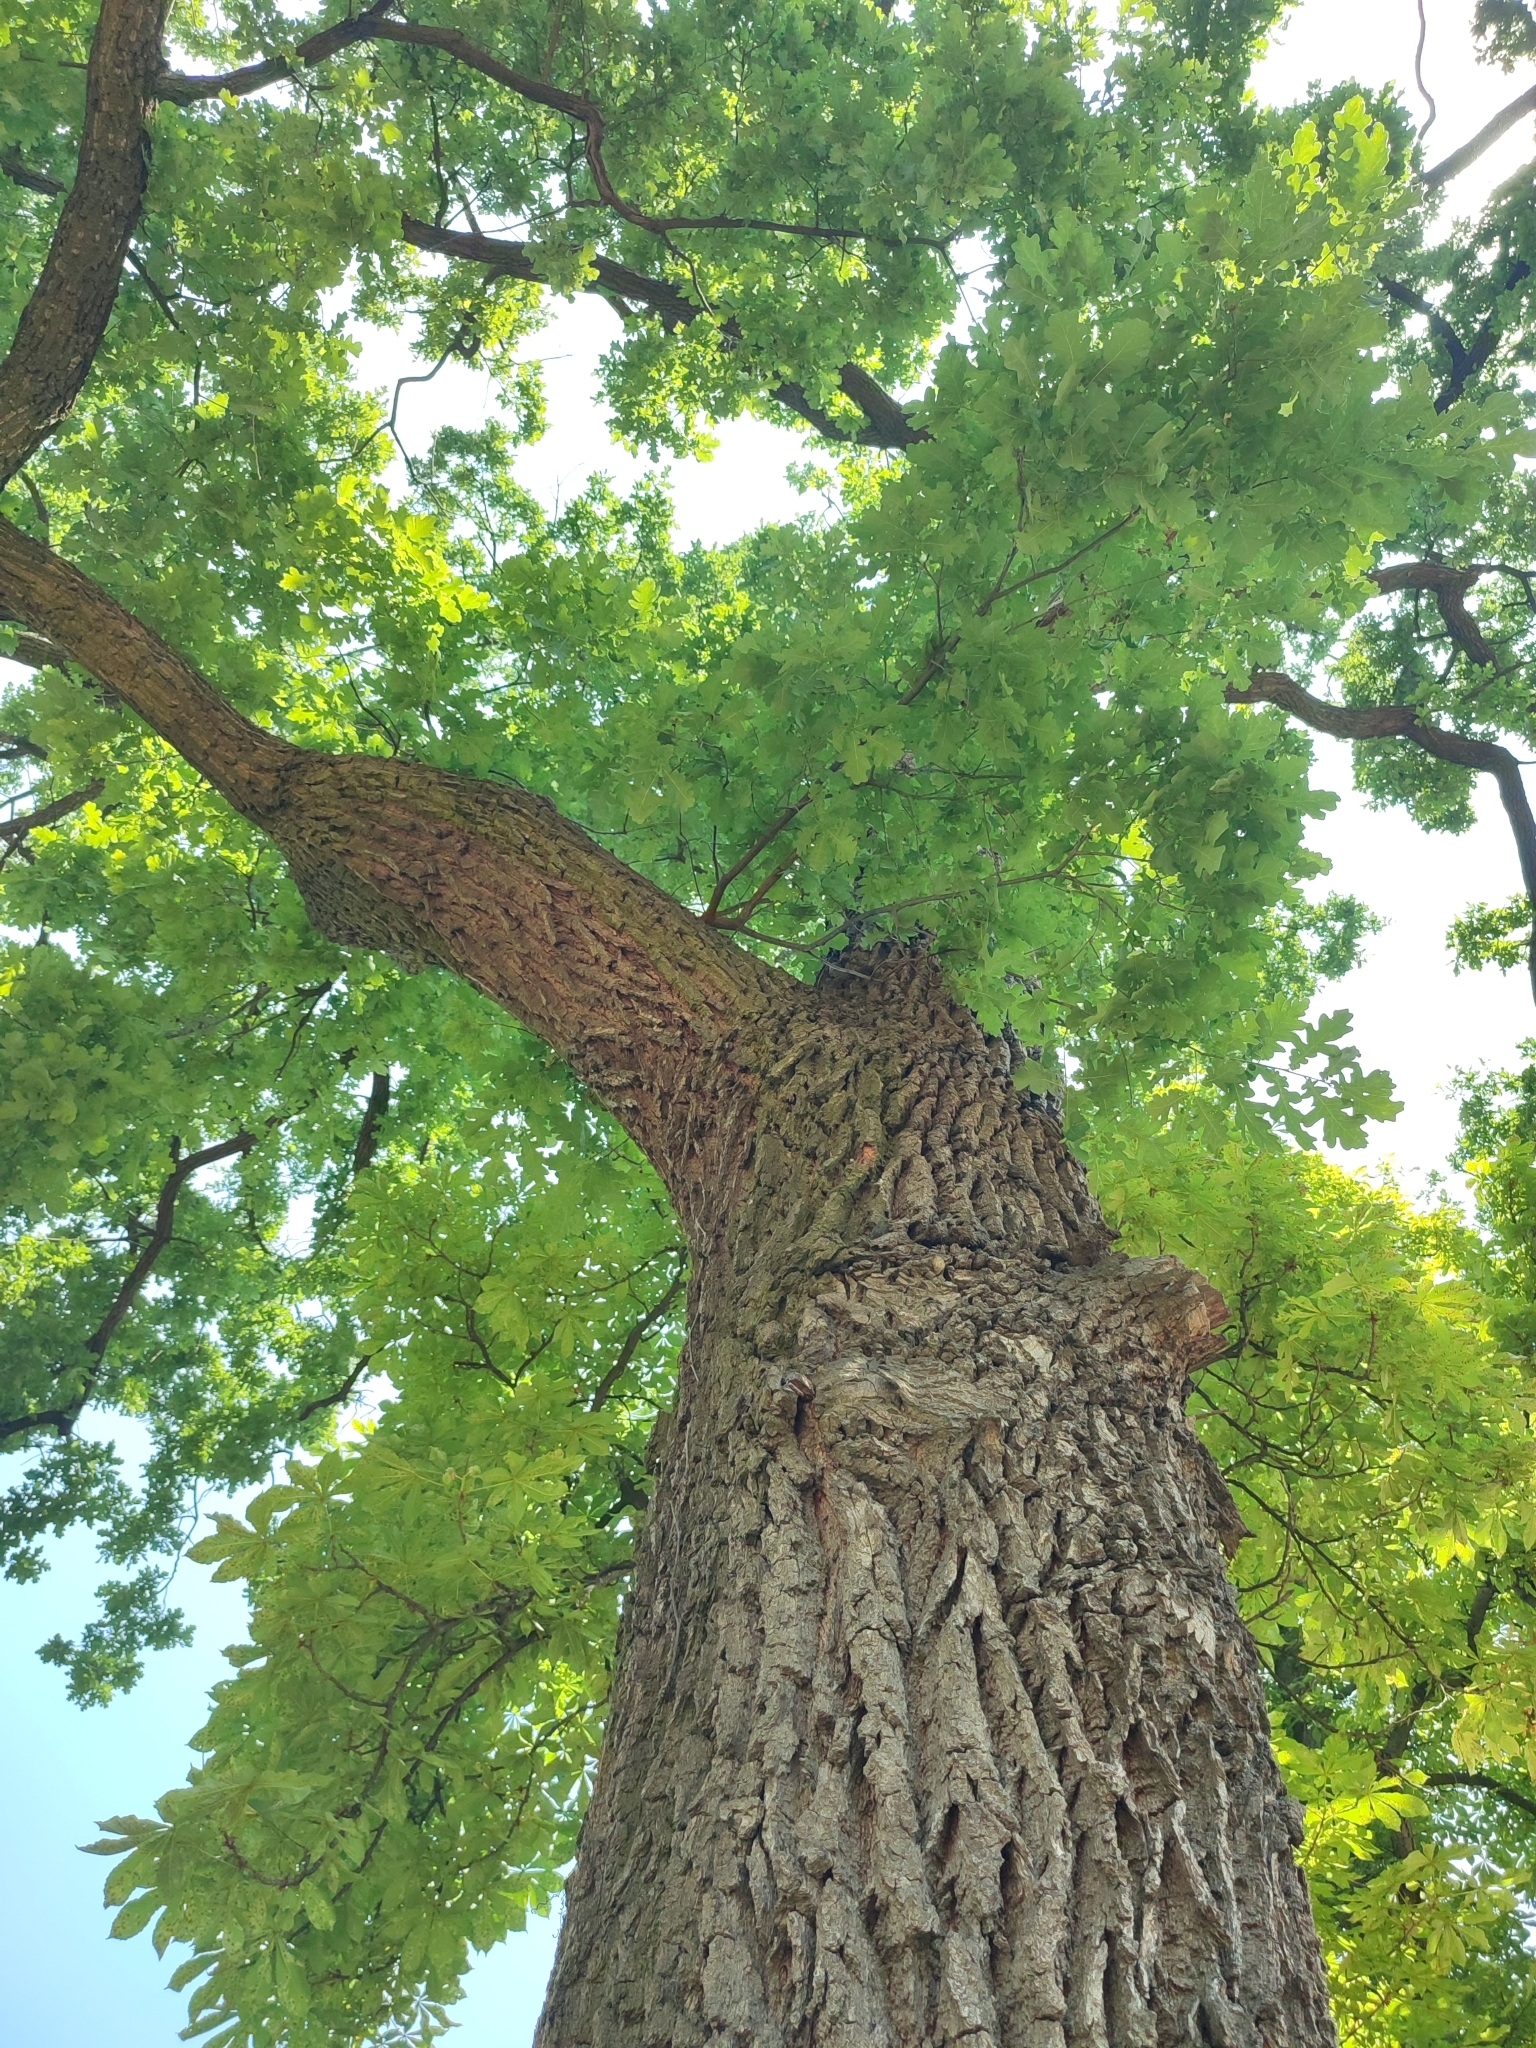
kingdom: Plantae
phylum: Tracheophyta
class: Magnoliopsida
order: Fagales
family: Fagaceae
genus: Quercus
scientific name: Quercus robur
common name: Pedunculate oak
